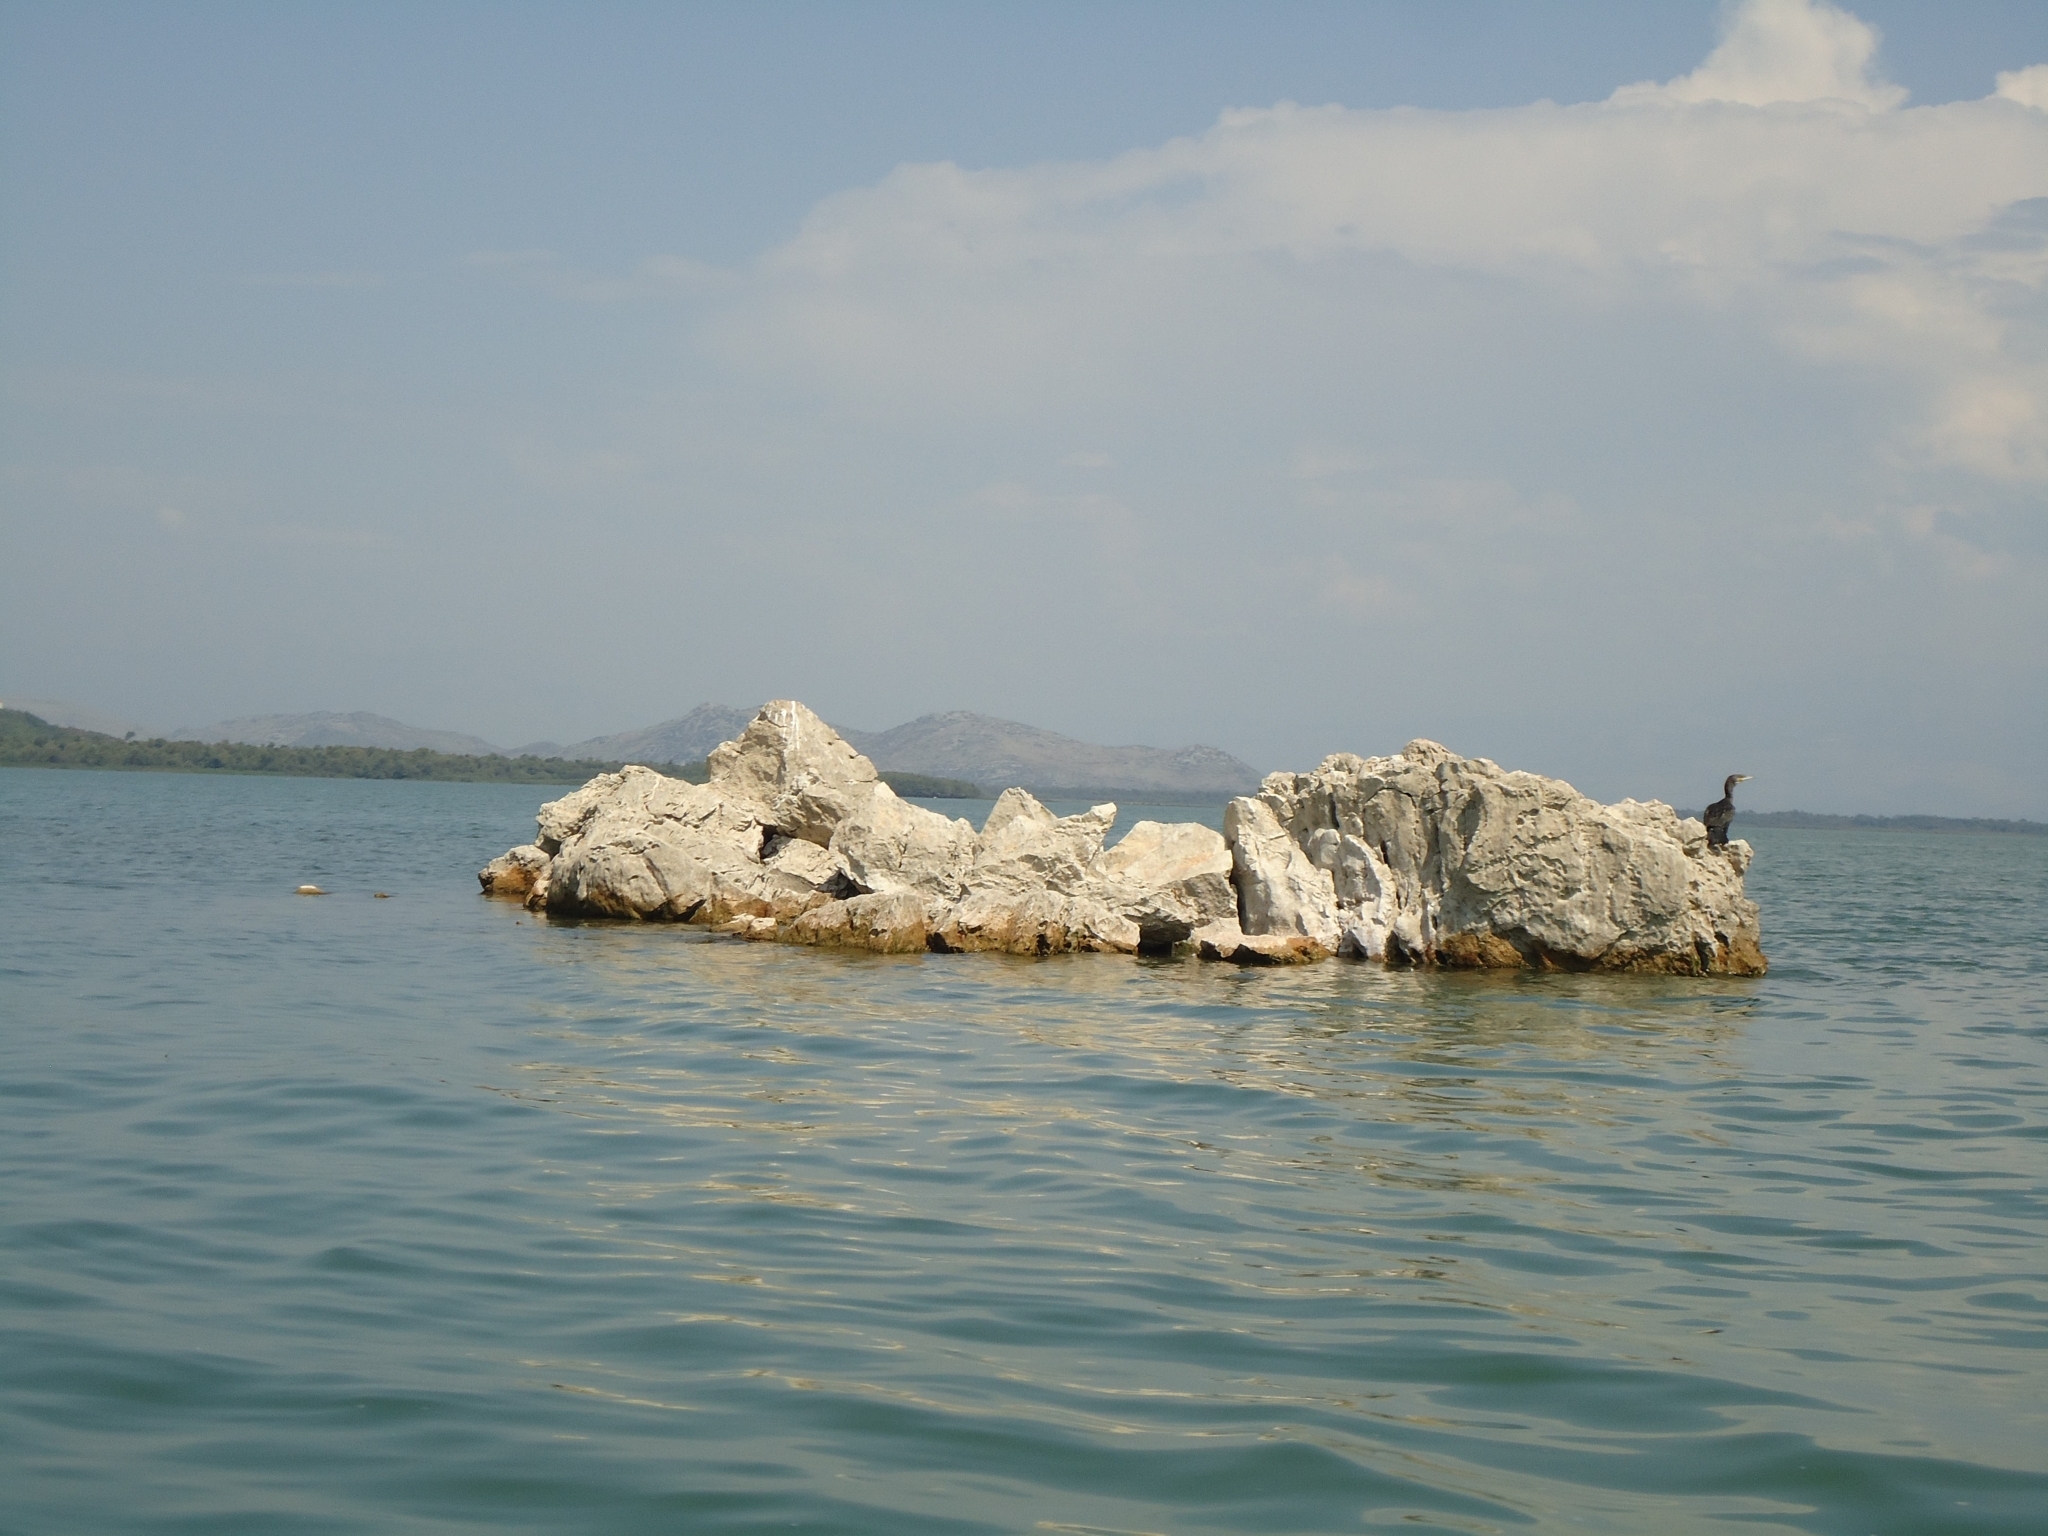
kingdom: Animalia
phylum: Chordata
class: Aves
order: Suliformes
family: Phalacrocoracidae
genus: Phalacrocorax
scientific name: Phalacrocorax carbo
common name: Great cormorant
